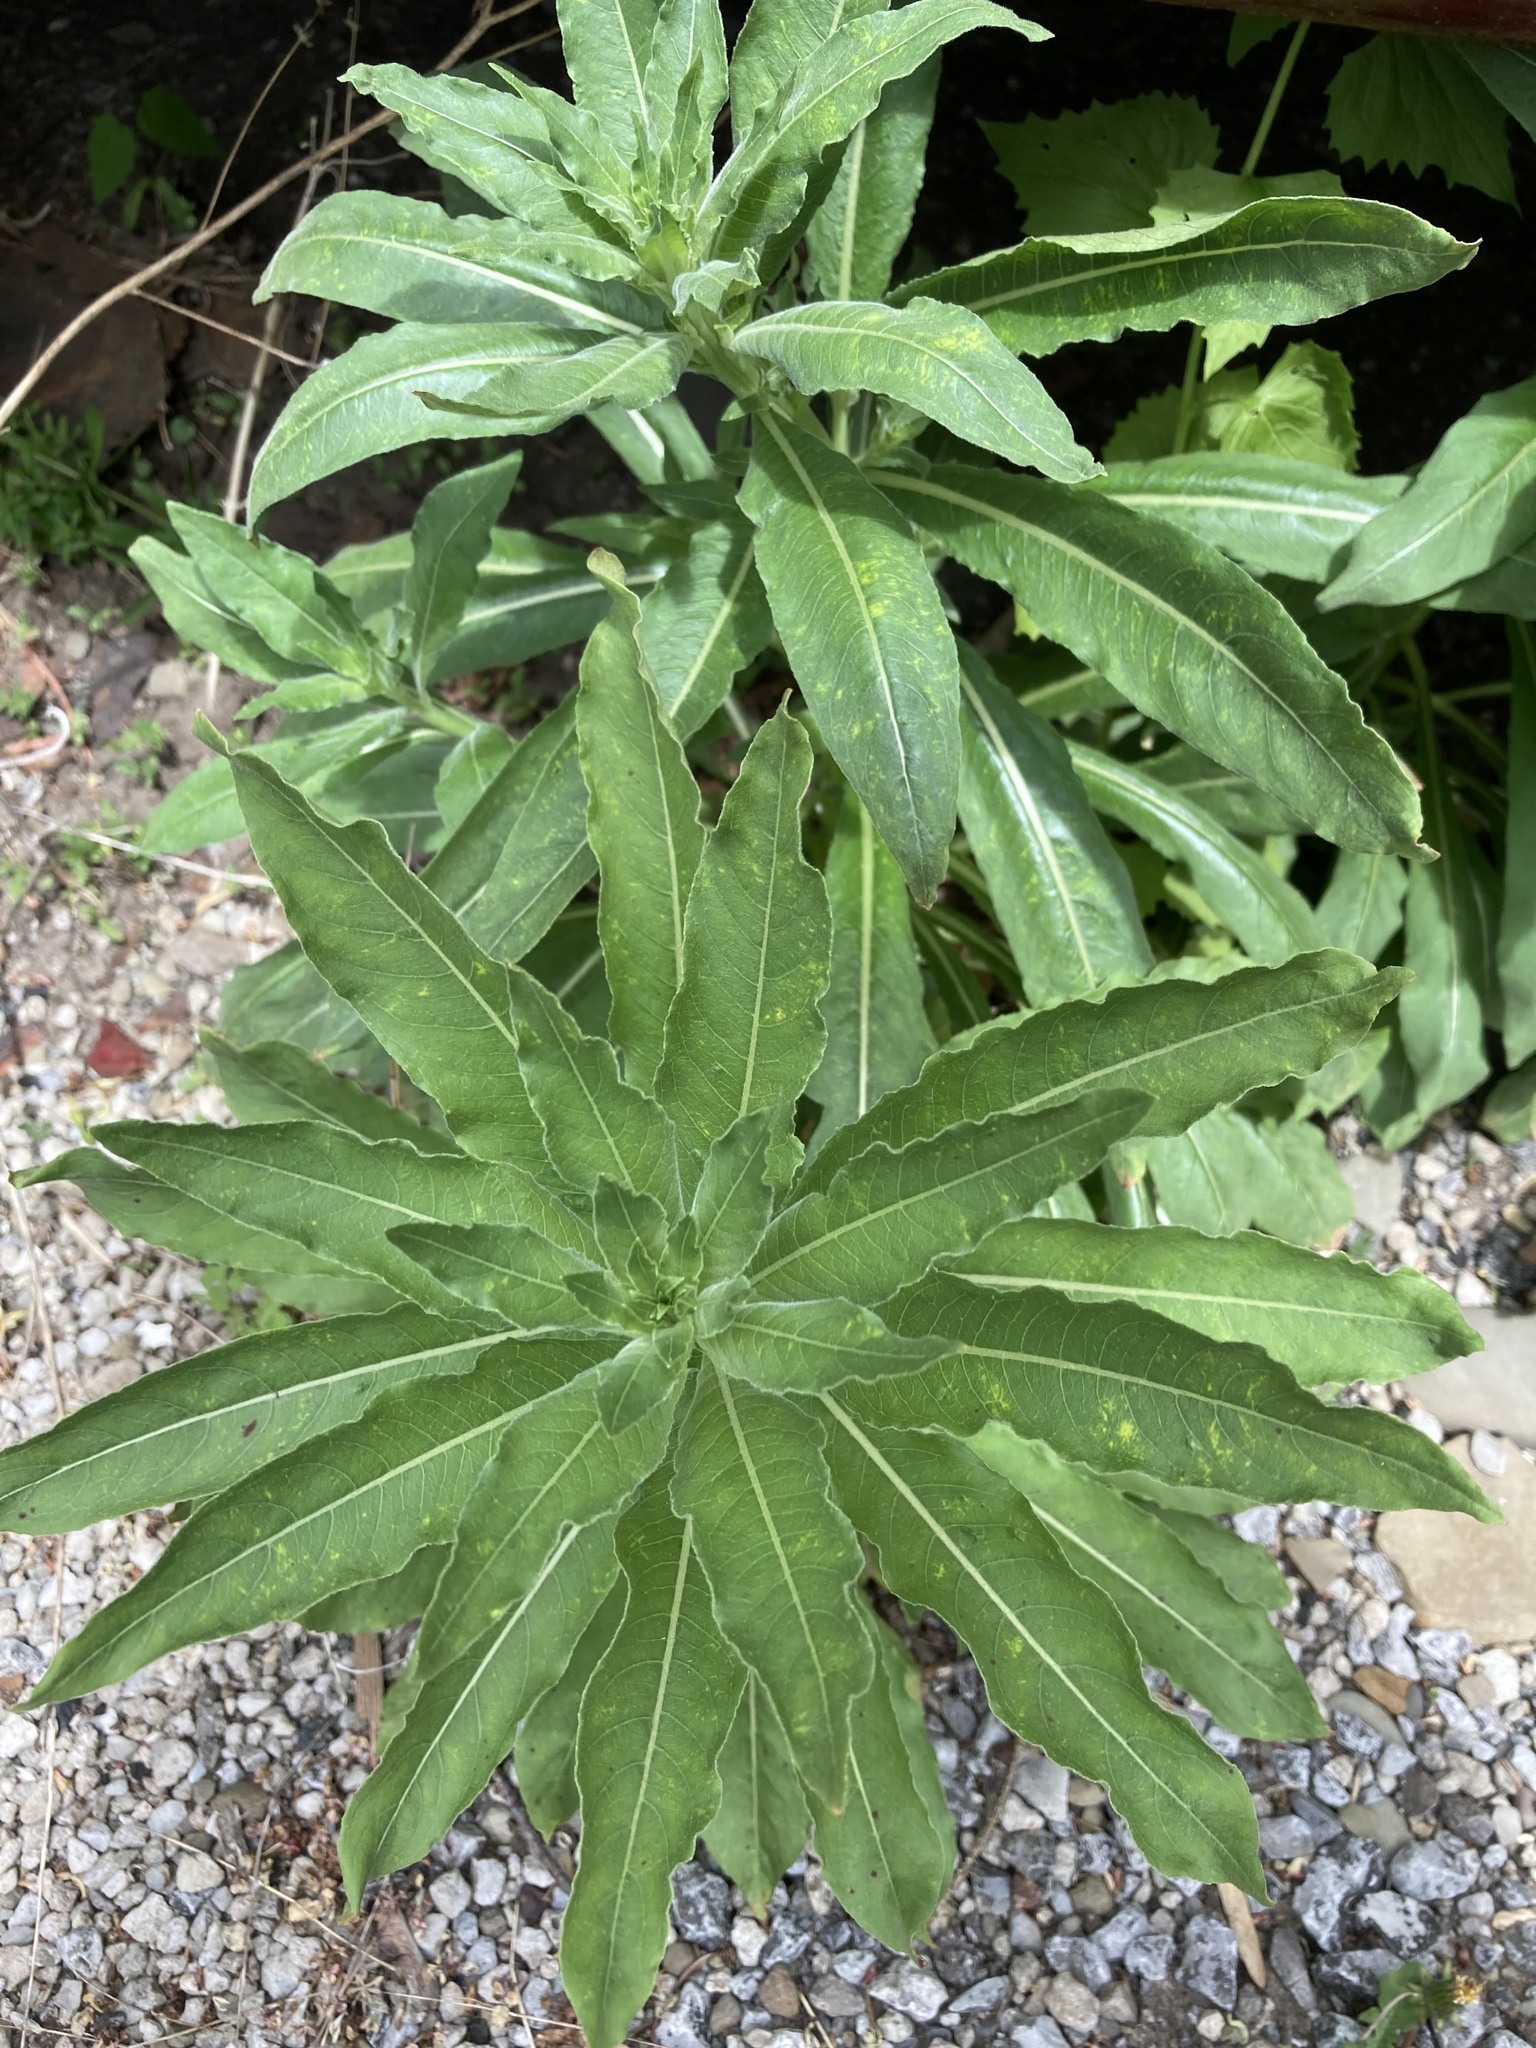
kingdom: Plantae
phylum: Tracheophyta
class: Magnoliopsida
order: Asterales
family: Asteraceae
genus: Erechtites
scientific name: Erechtites hieraciifolius
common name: American burnweed
